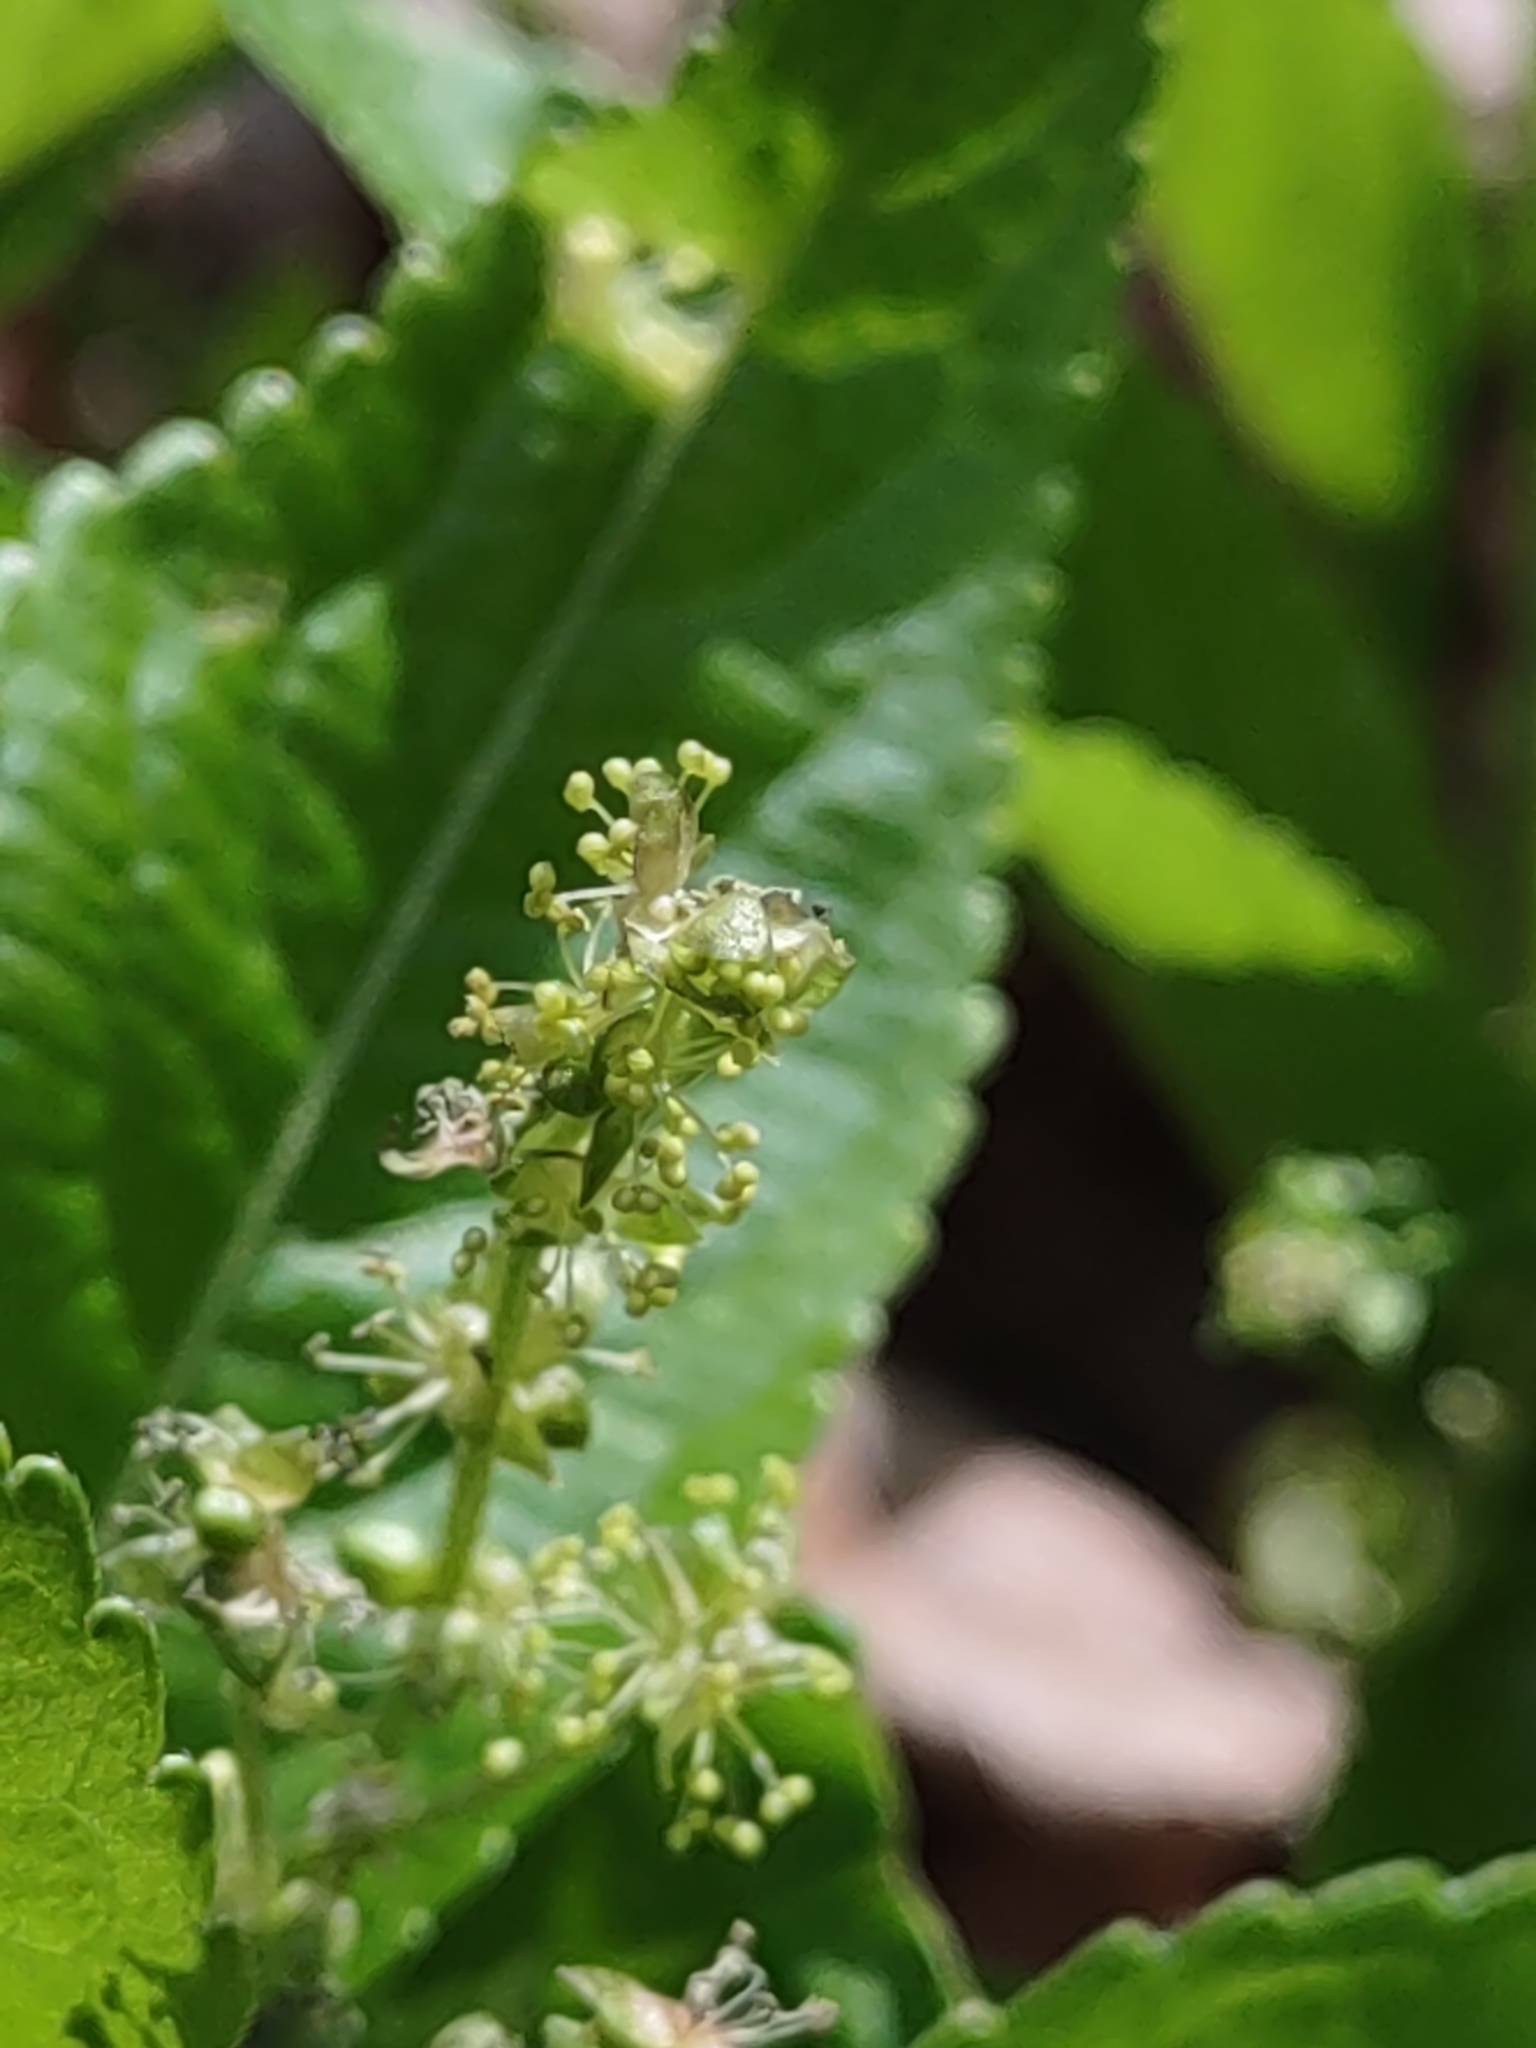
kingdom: Plantae
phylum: Tracheophyta
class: Magnoliopsida
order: Malpighiales
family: Euphorbiaceae
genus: Mercurialis
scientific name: Mercurialis perennis
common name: Dog mercury
